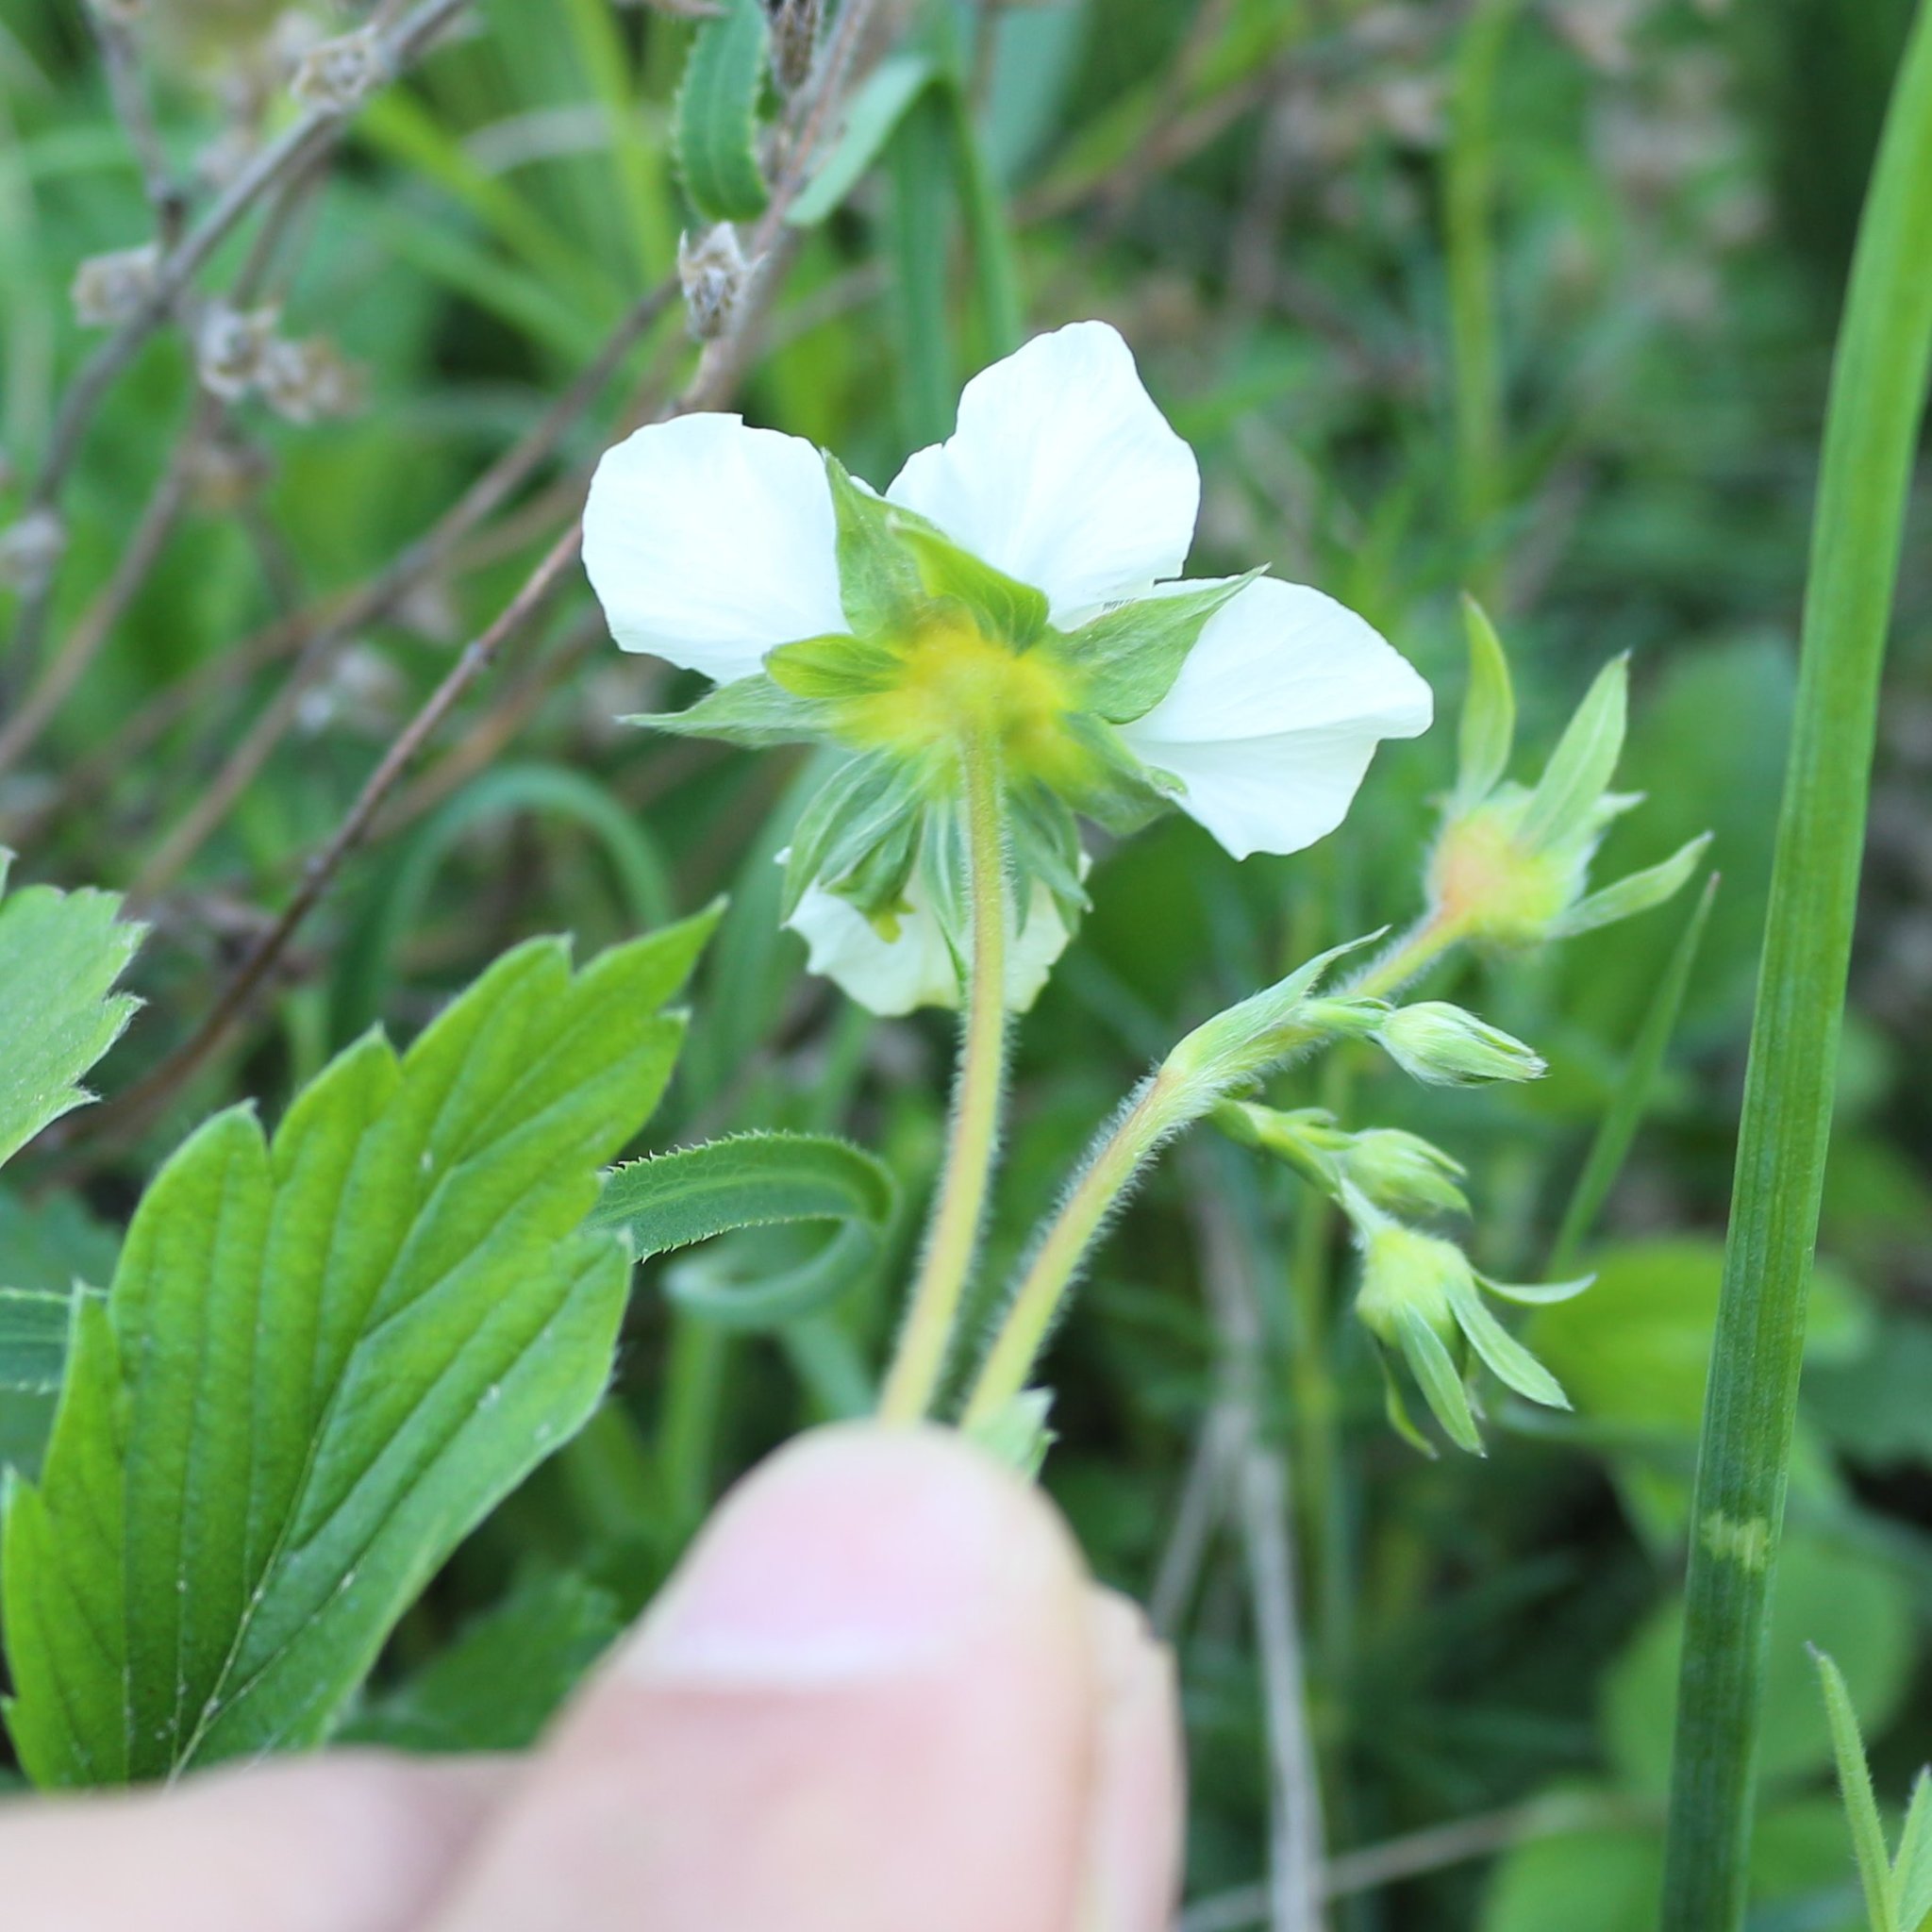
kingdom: Plantae
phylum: Tracheophyta
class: Magnoliopsida
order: Rosales
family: Rosaceae
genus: Fragaria
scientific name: Fragaria viridis
